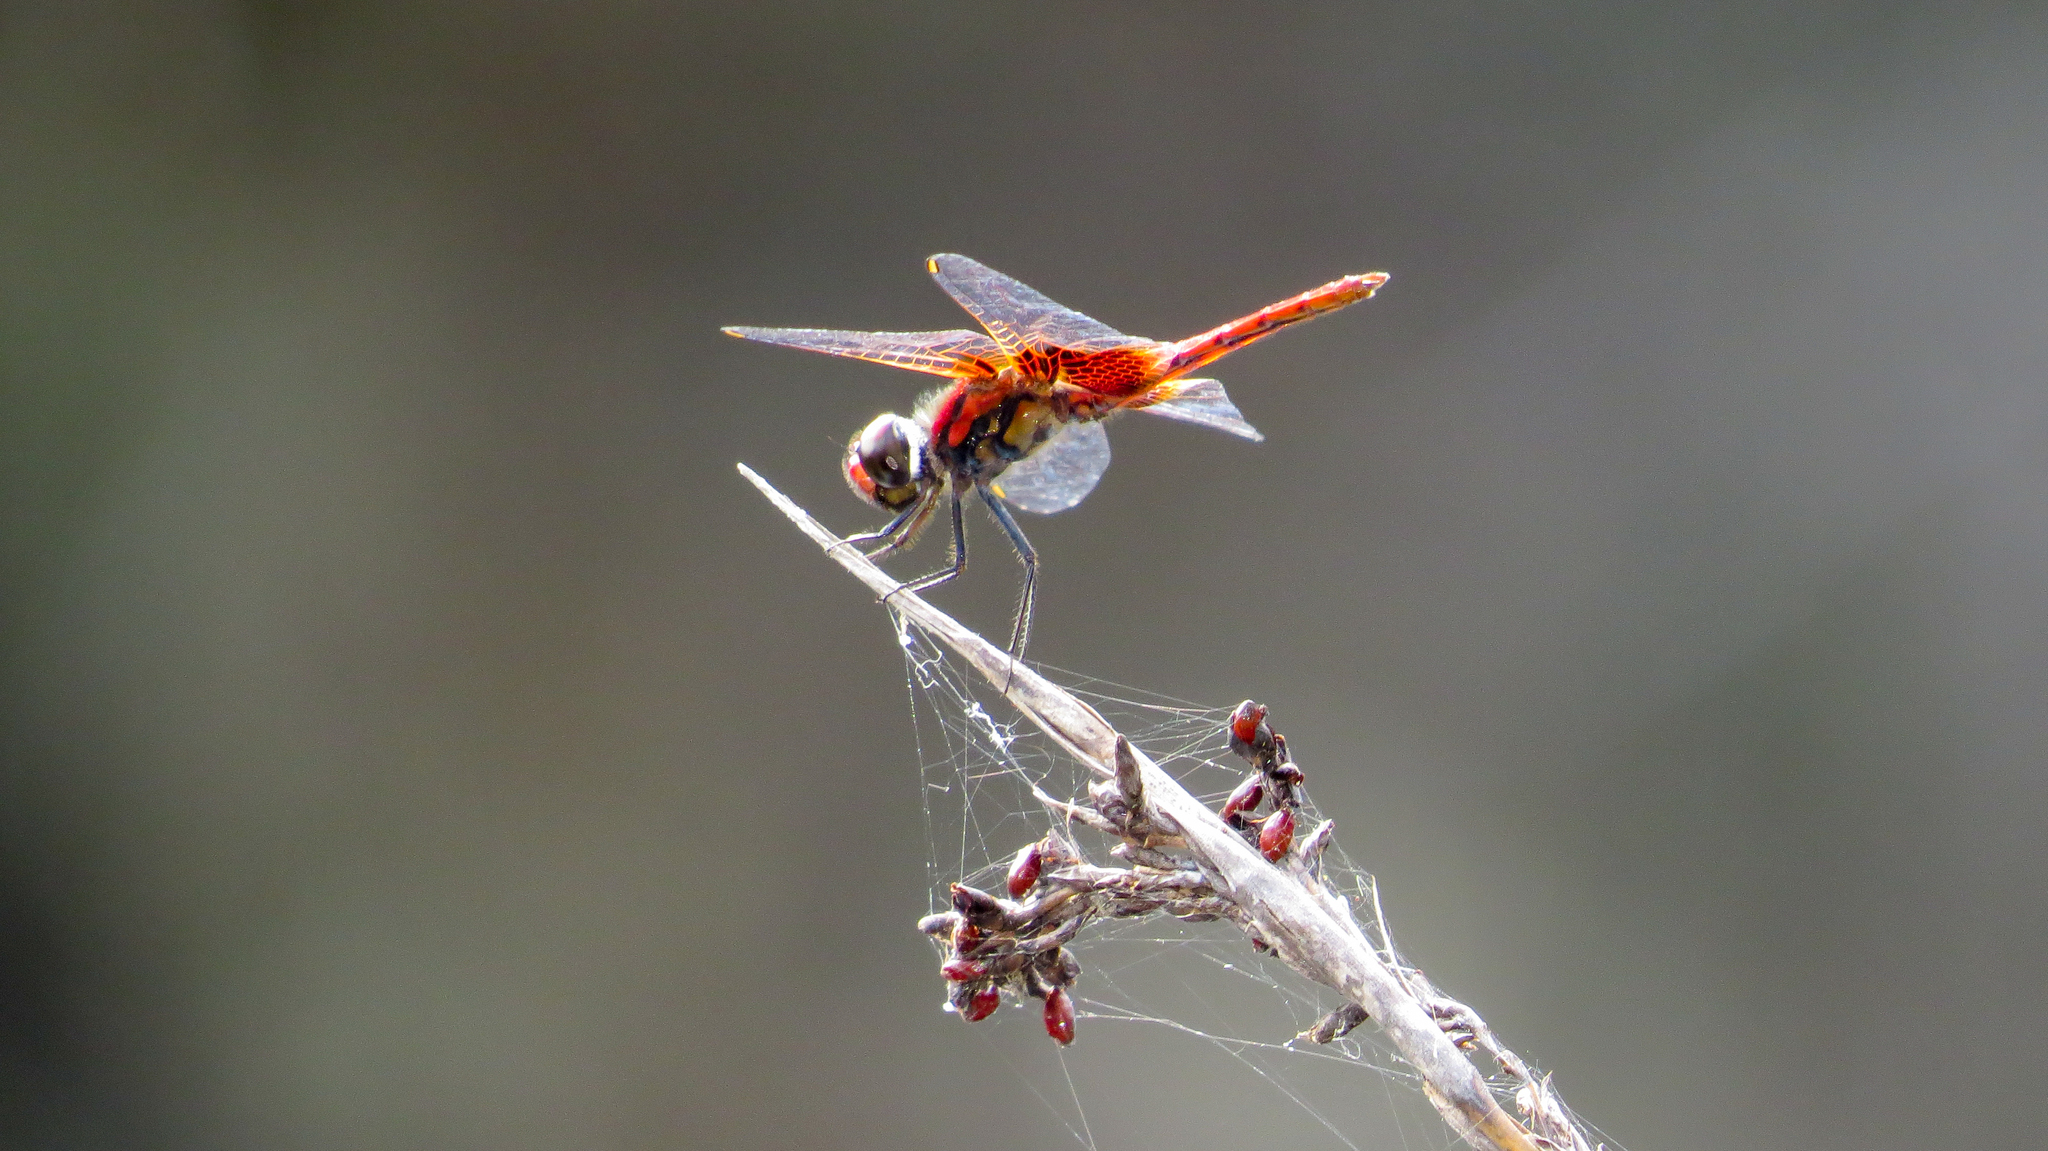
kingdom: Animalia
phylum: Arthropoda
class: Insecta
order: Odonata
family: Libellulidae
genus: Aethriamanta
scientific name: Aethriamanta circumsignata
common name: Square-spot basker
